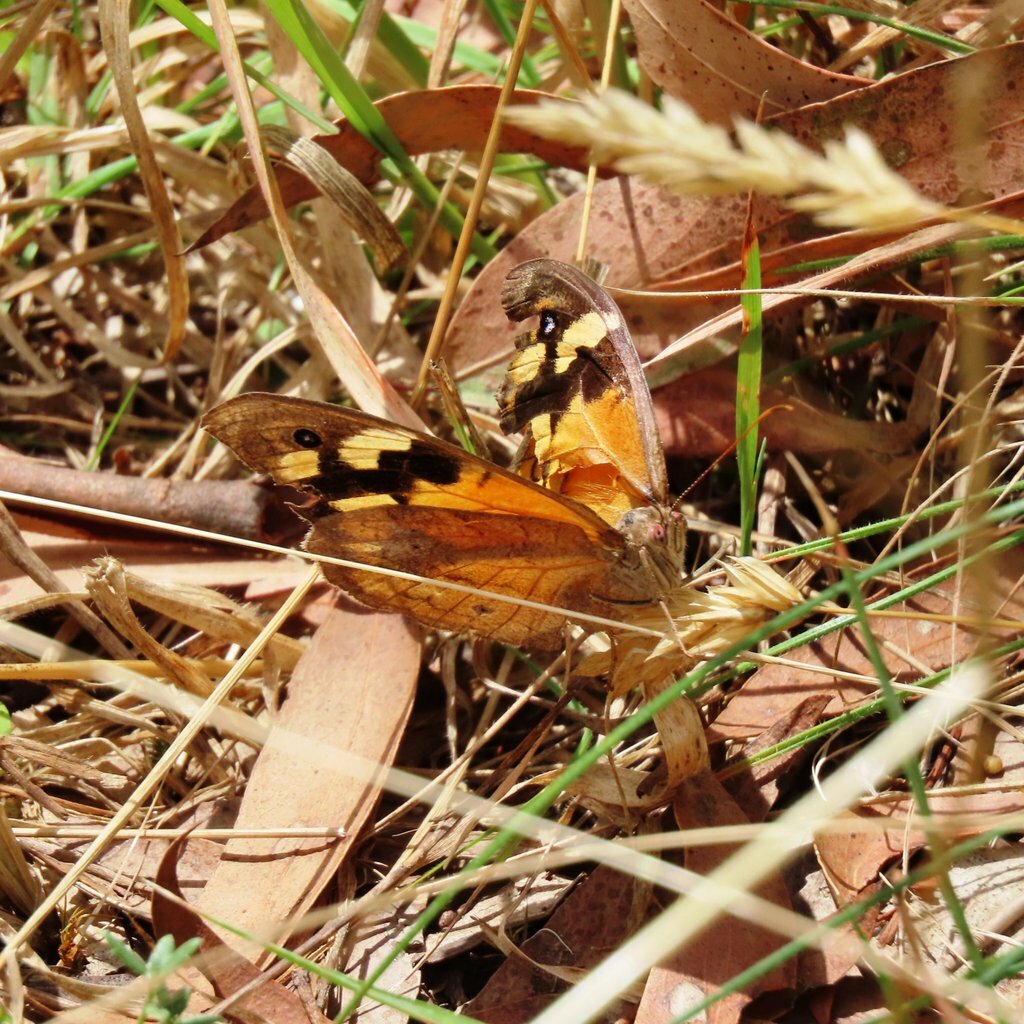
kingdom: Animalia
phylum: Arthropoda
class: Insecta
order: Lepidoptera
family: Nymphalidae
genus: Heteronympha
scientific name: Heteronympha merope
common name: Common brown
